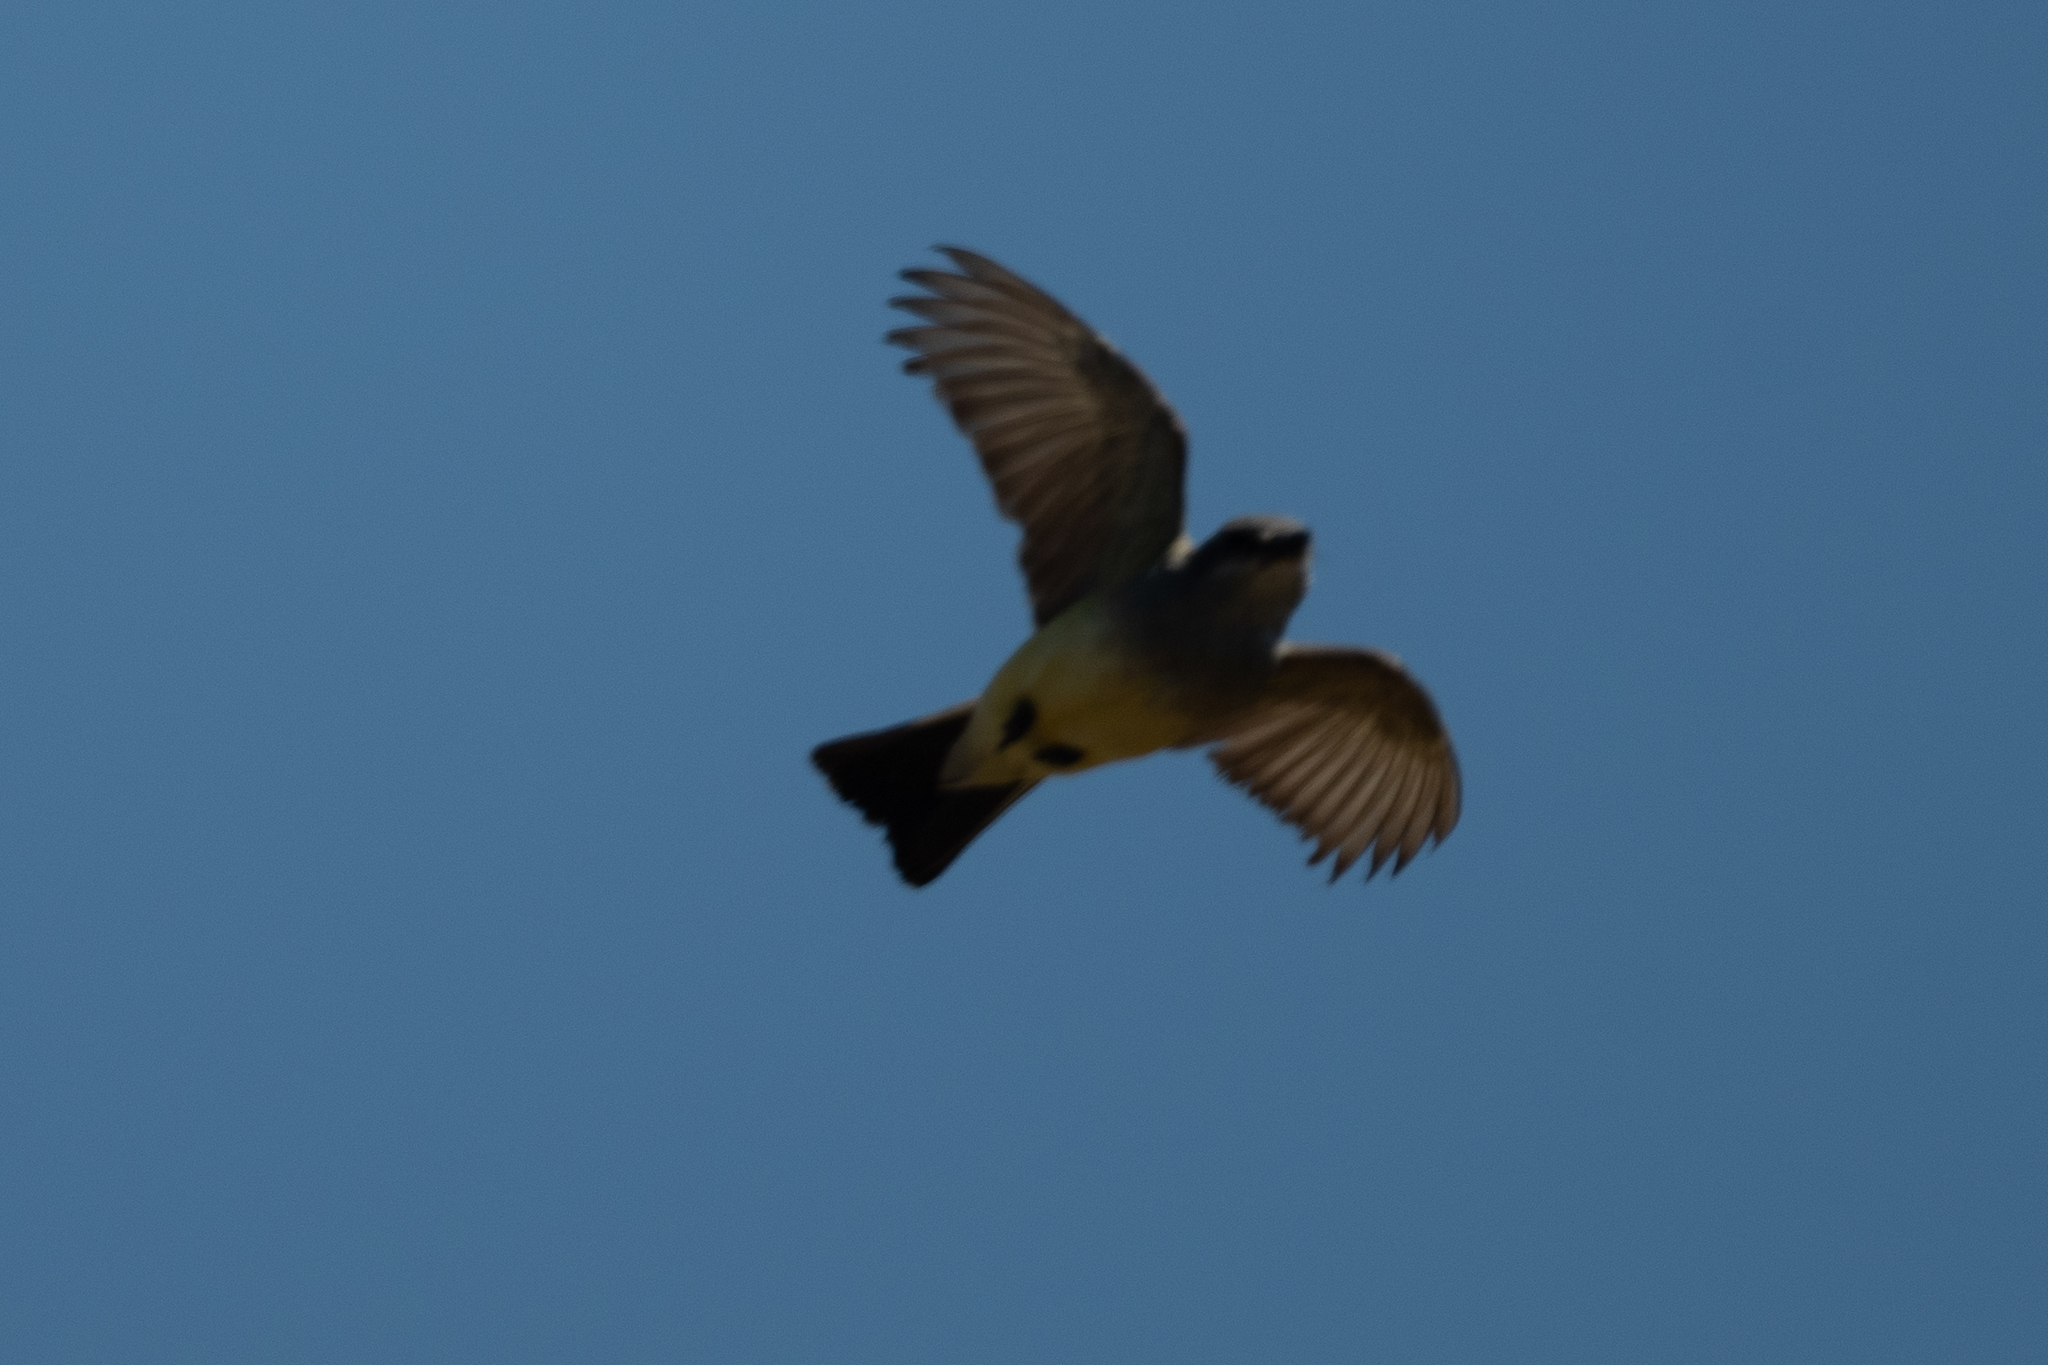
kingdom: Animalia
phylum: Chordata
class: Aves
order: Passeriformes
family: Tyrannidae
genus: Tyrannus
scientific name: Tyrannus verticalis
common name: Western kingbird
